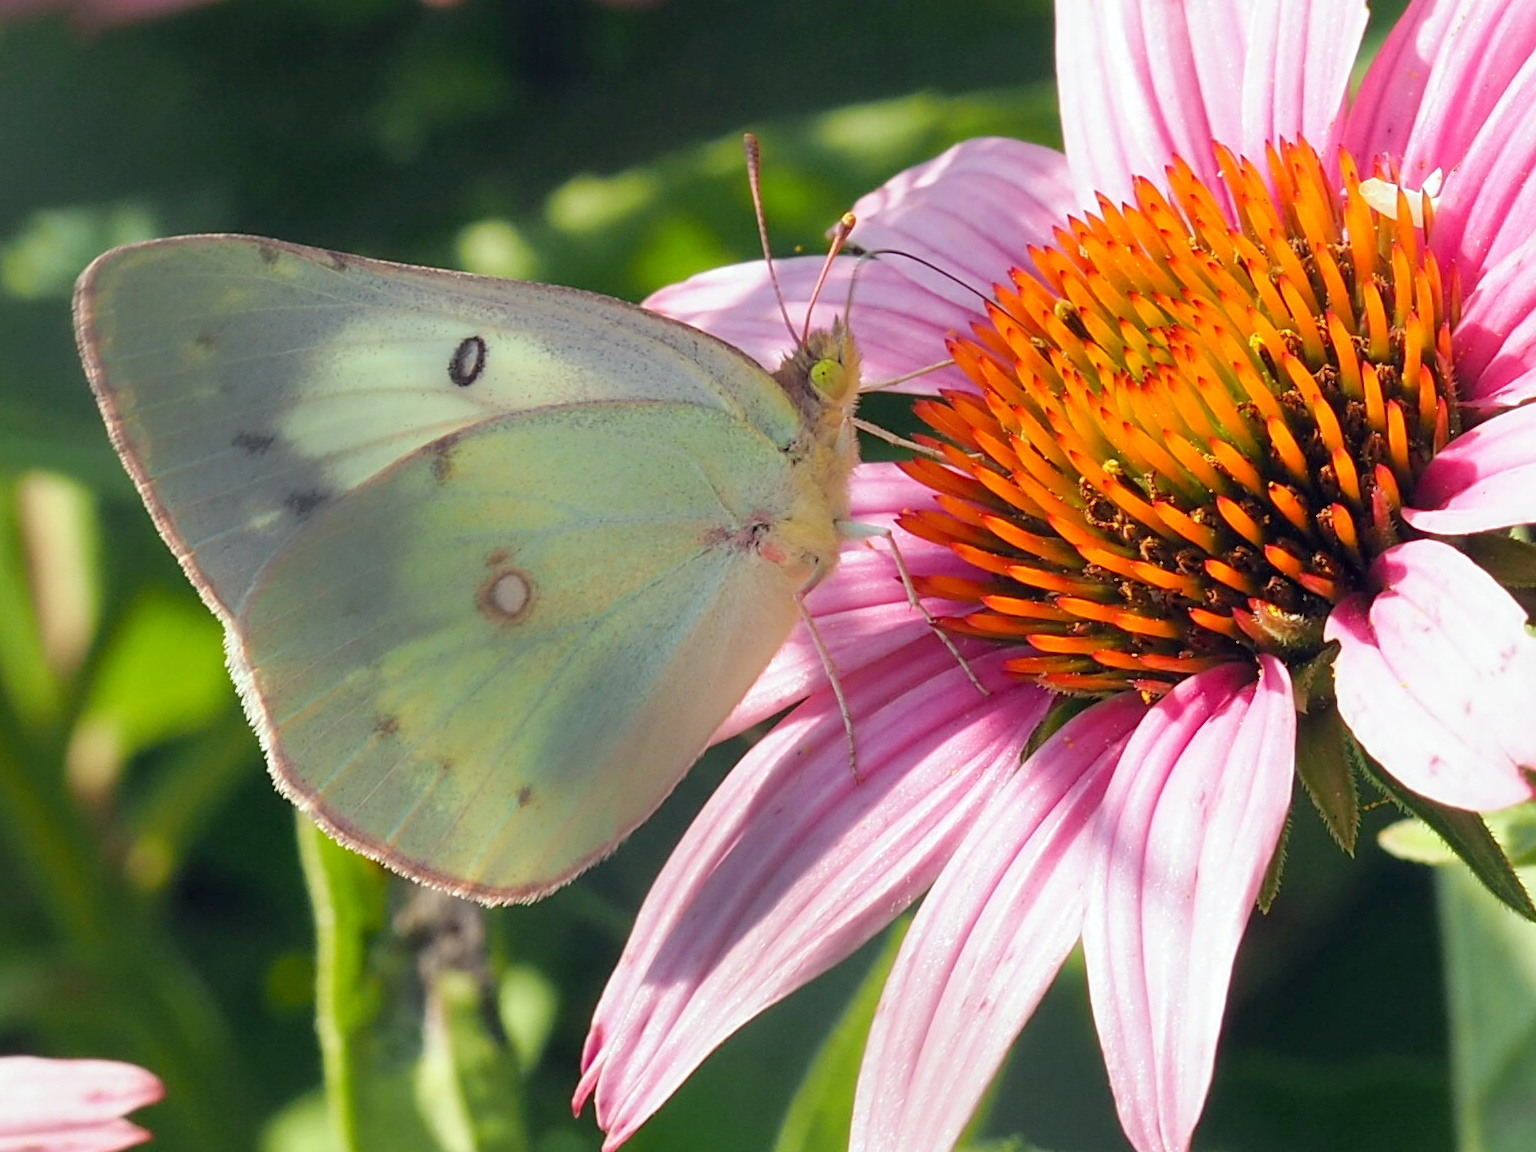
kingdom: Animalia
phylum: Arthropoda
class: Insecta
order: Lepidoptera
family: Pieridae
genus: Colias
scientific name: Colias philodice
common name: Clouded sulphur
